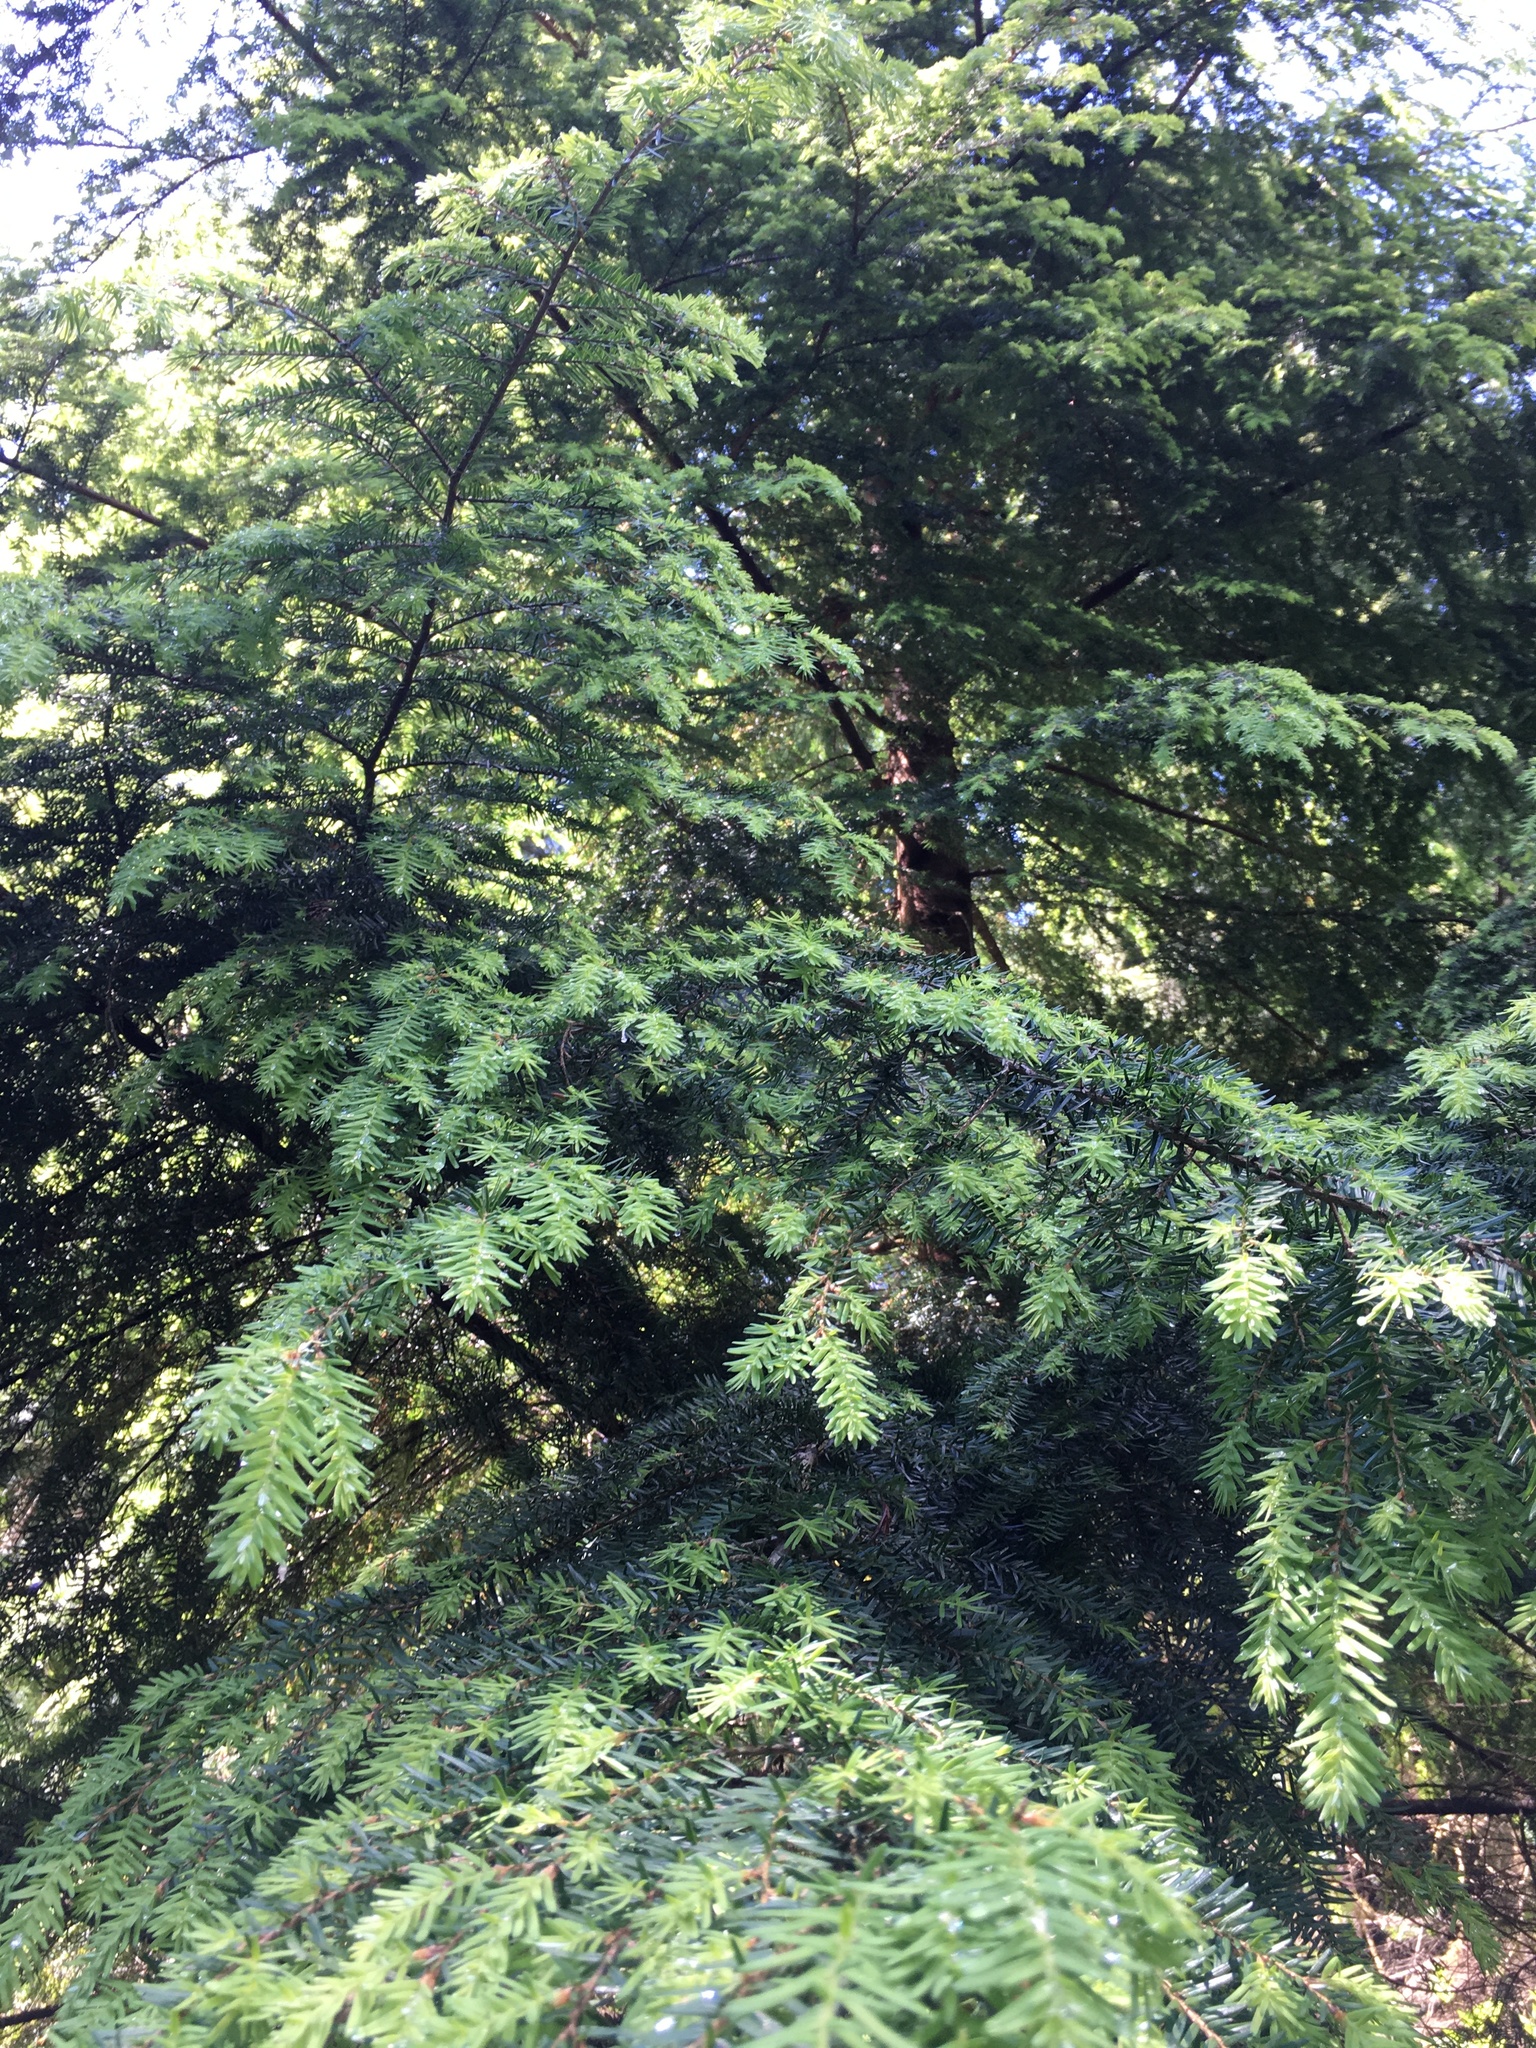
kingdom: Plantae
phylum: Tracheophyta
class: Pinopsida
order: Pinales
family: Pinaceae
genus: Tsuga
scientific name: Tsuga heterophylla
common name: Western hemlock
